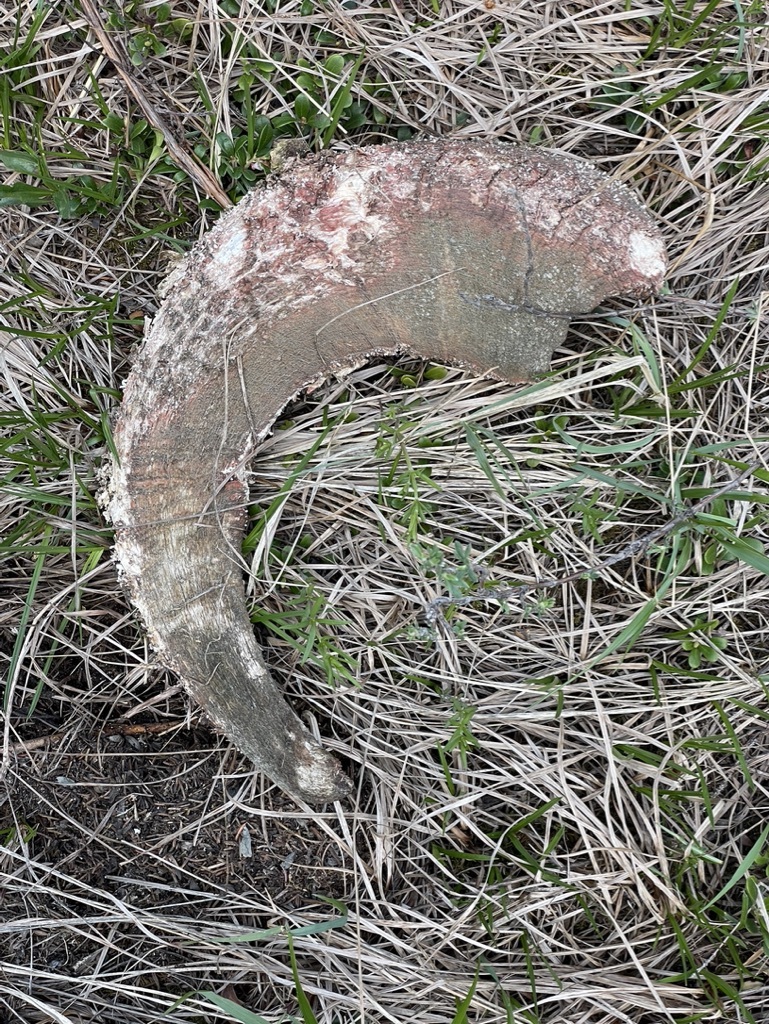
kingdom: Animalia
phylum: Chordata
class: Mammalia
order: Artiodactyla
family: Bovidae
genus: Ovis
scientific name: Ovis canadensis
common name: Bighorn sheep
